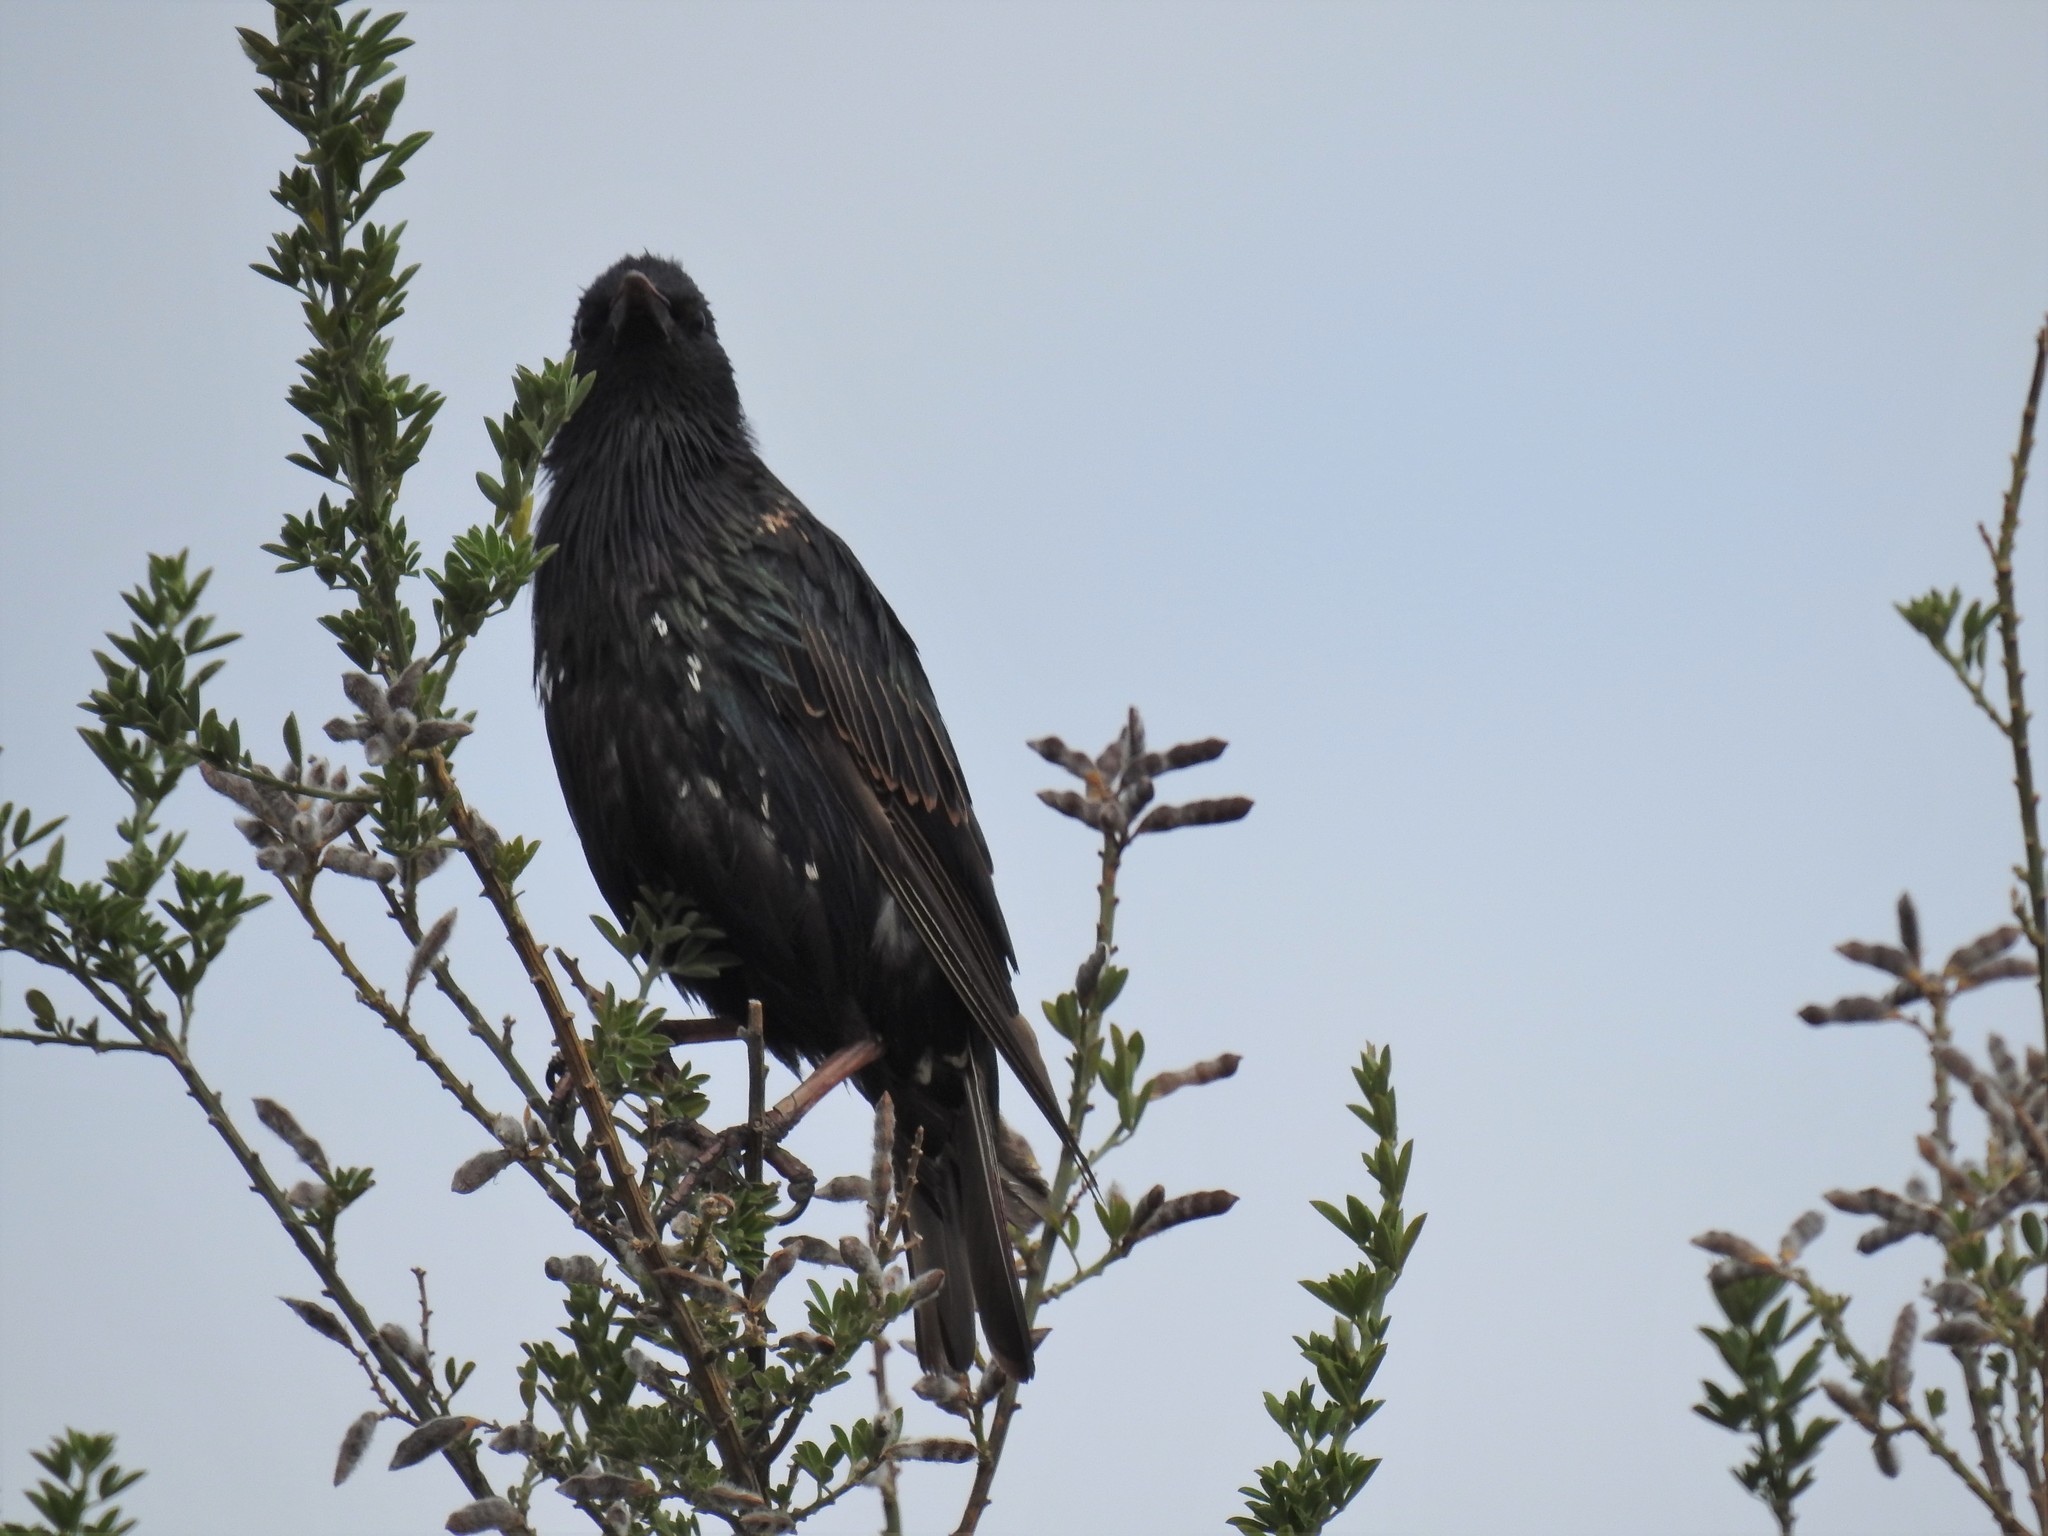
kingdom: Animalia
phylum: Chordata
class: Aves
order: Passeriformes
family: Sturnidae
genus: Sturnus
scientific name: Sturnus vulgaris
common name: Common starling
